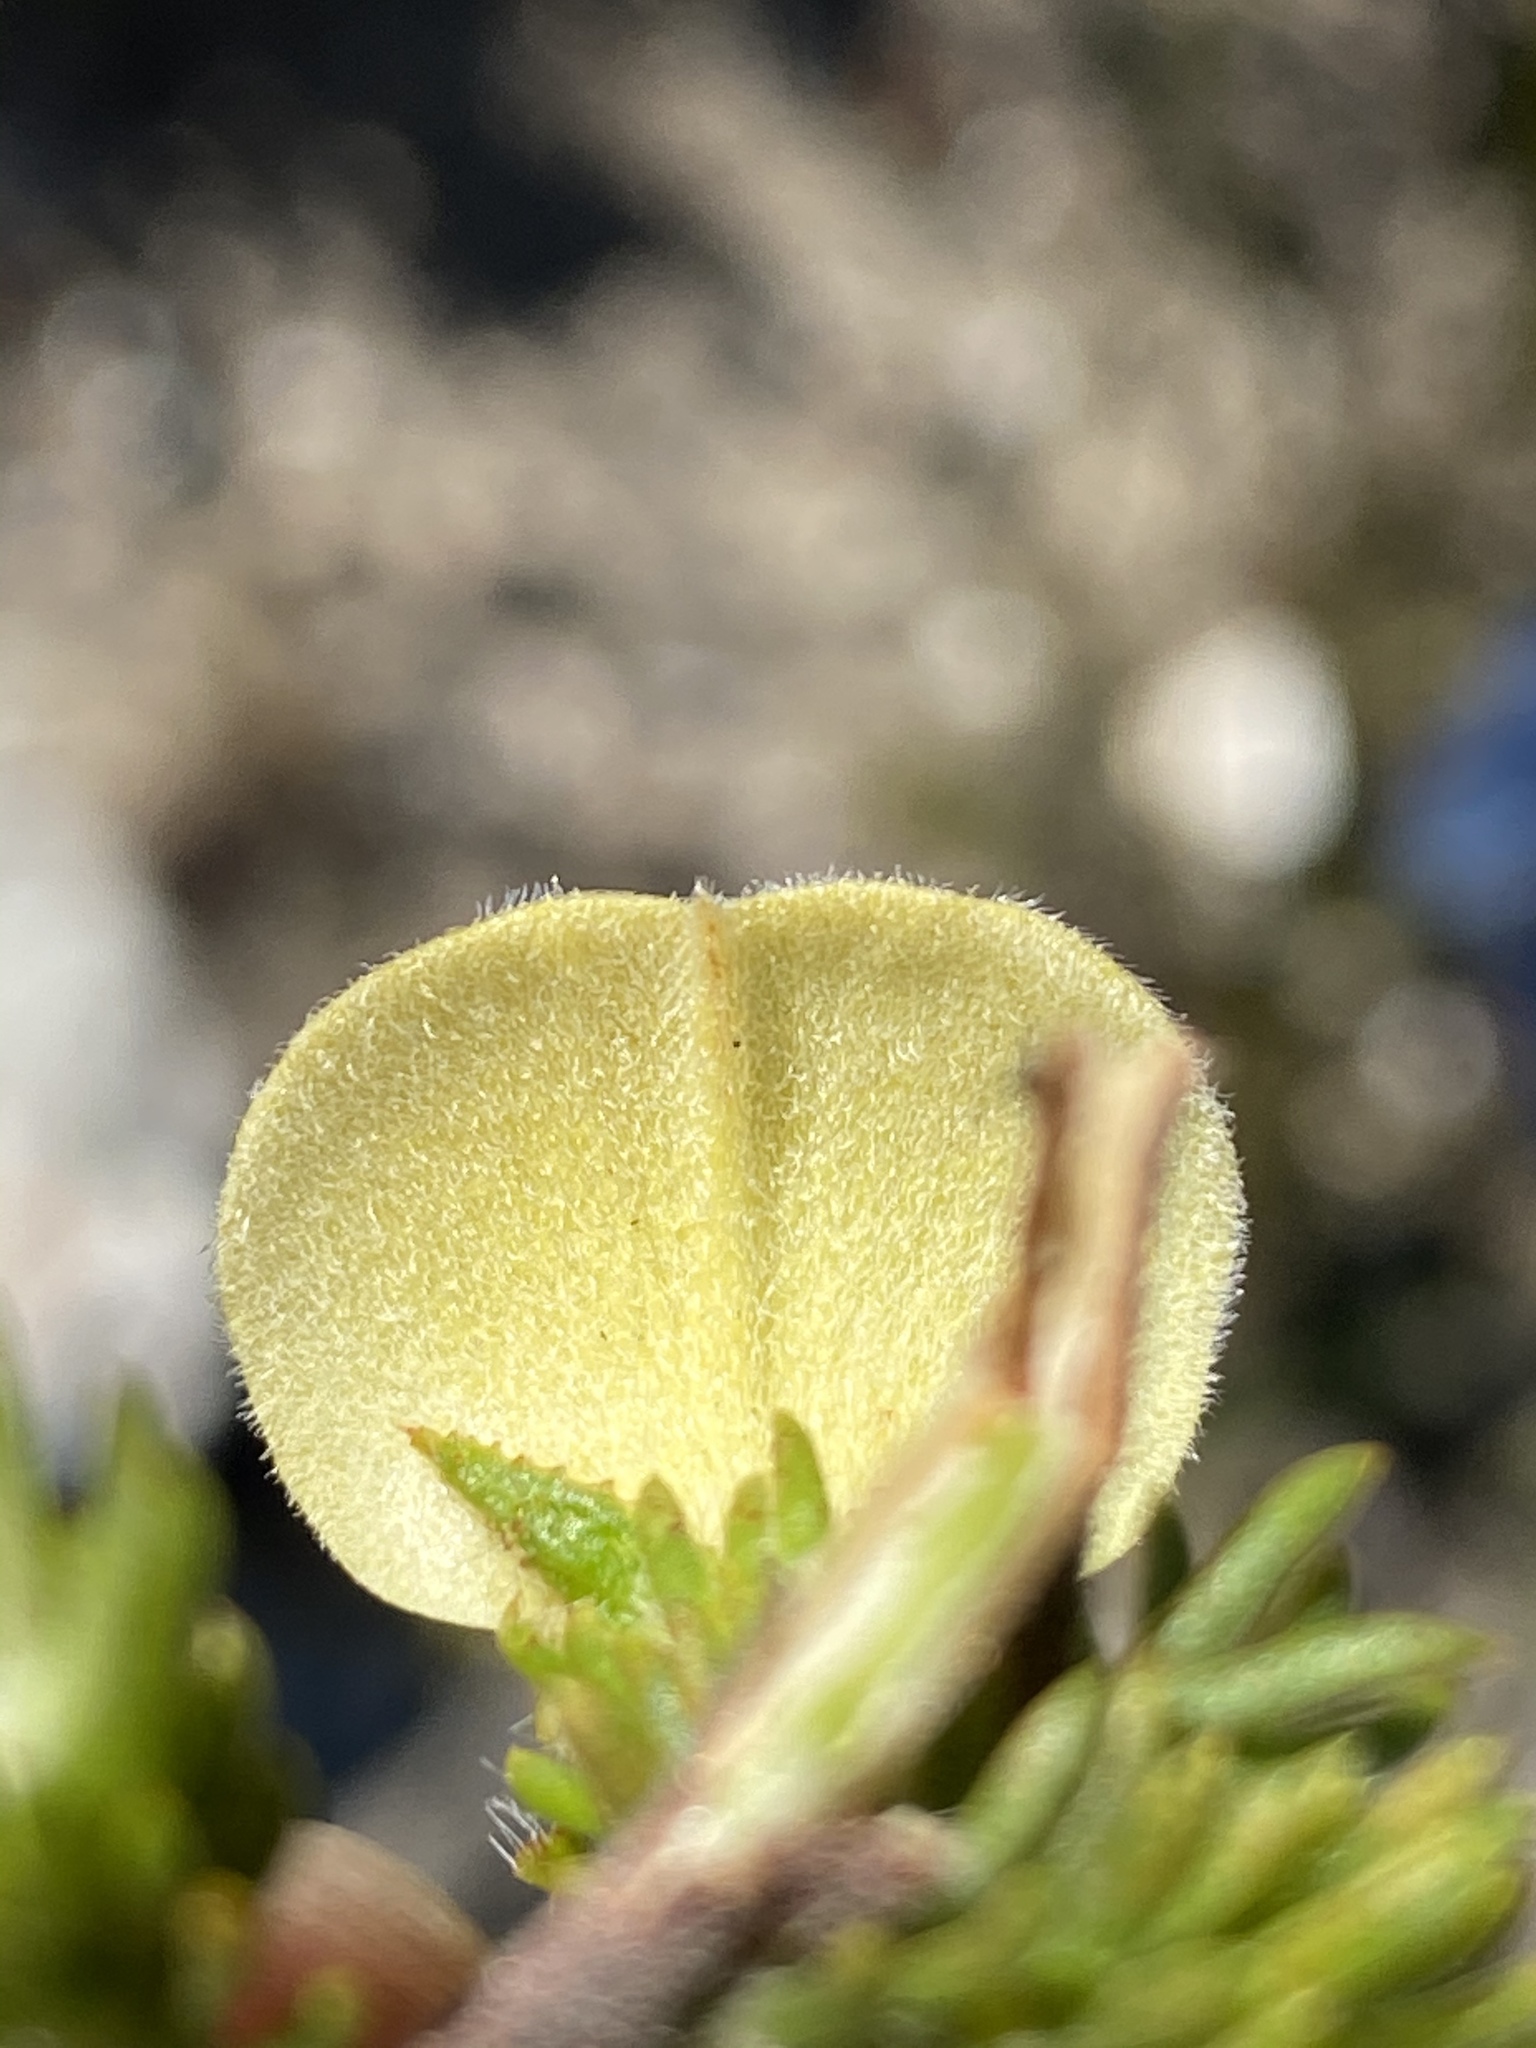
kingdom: Plantae
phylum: Tracheophyta
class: Magnoliopsida
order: Fabales
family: Fabaceae
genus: Aspalathus
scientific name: Aspalathus ciliaris
